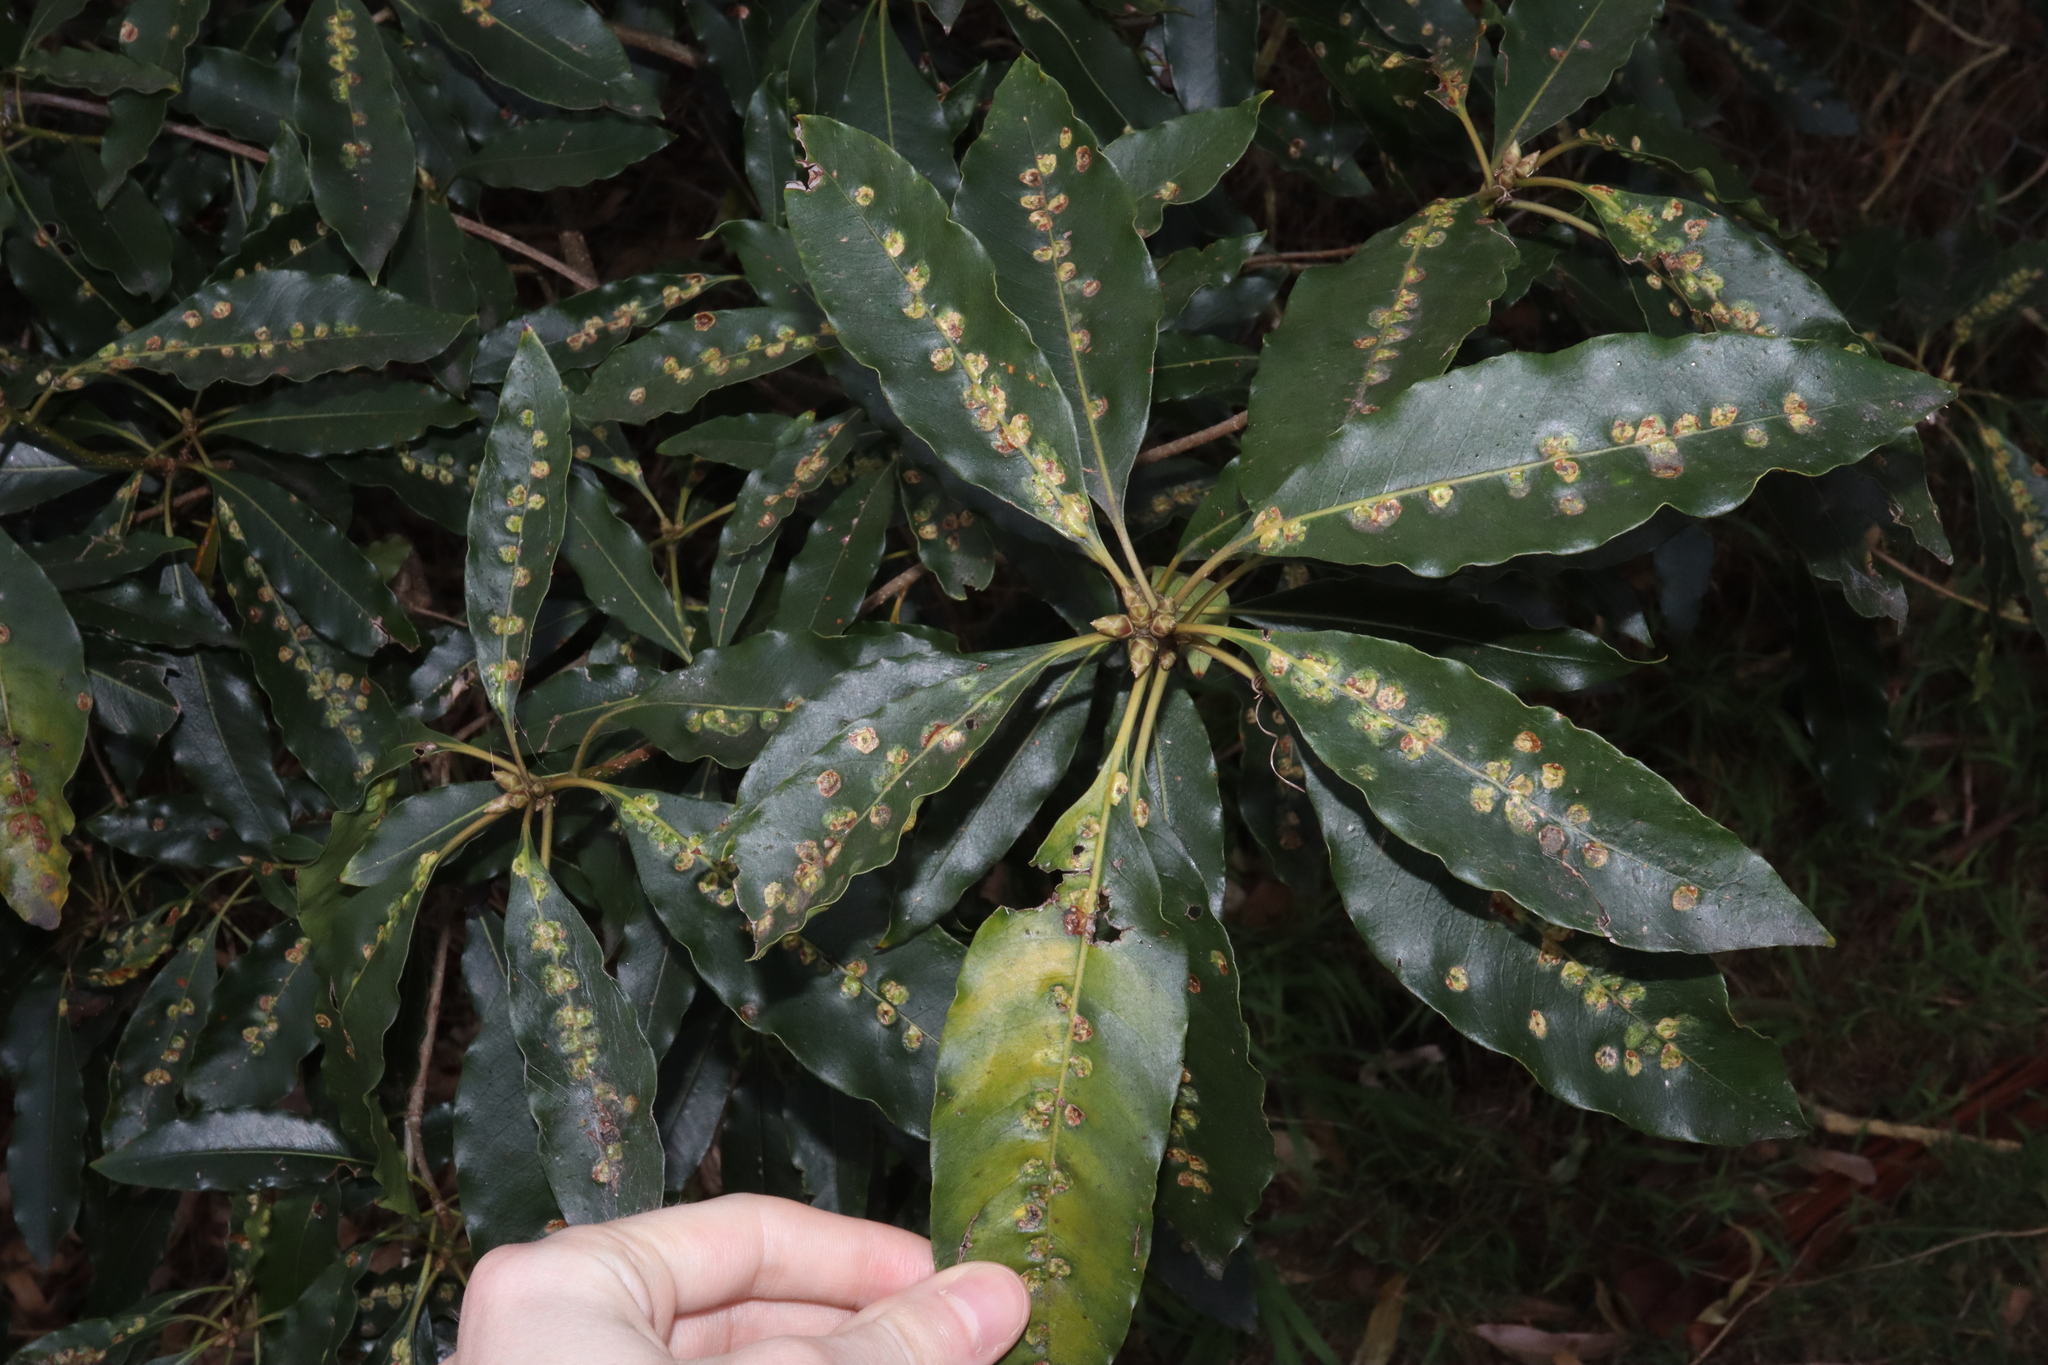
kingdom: Animalia
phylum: Arthropoda
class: Insecta
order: Diptera
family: Agromyzidae
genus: Phytoliriomyza
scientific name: Phytoliriomyza pittosporophylli
